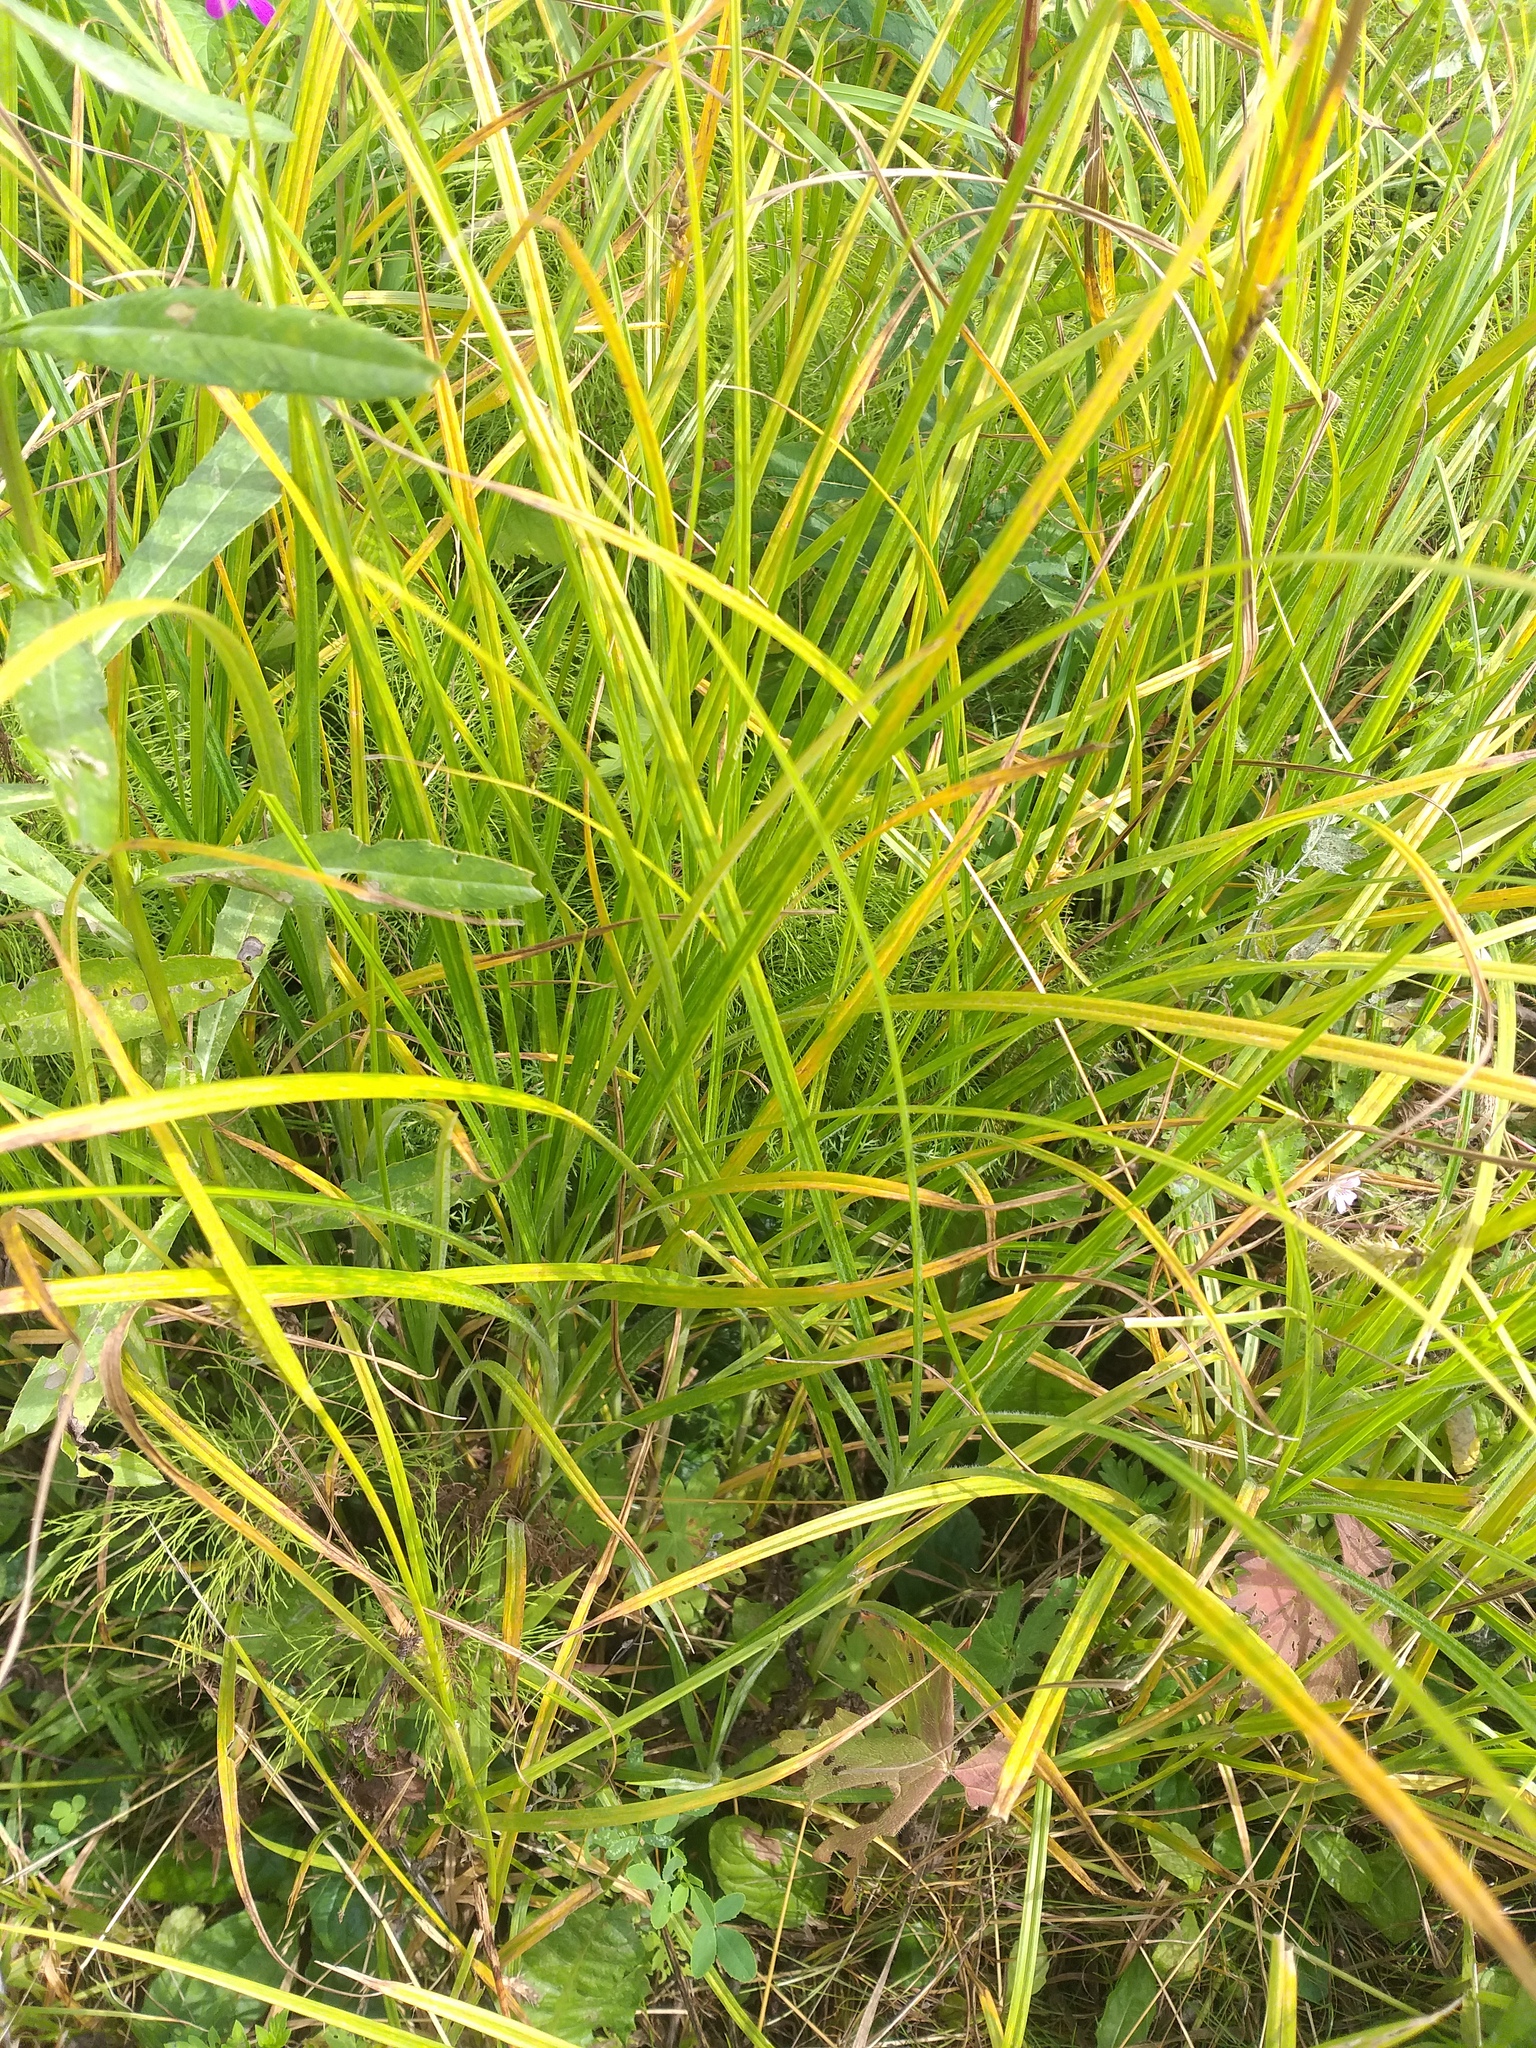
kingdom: Plantae
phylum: Tracheophyta
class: Liliopsida
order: Poales
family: Cyperaceae
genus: Carex
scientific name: Carex hirta
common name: Hairy sedge
